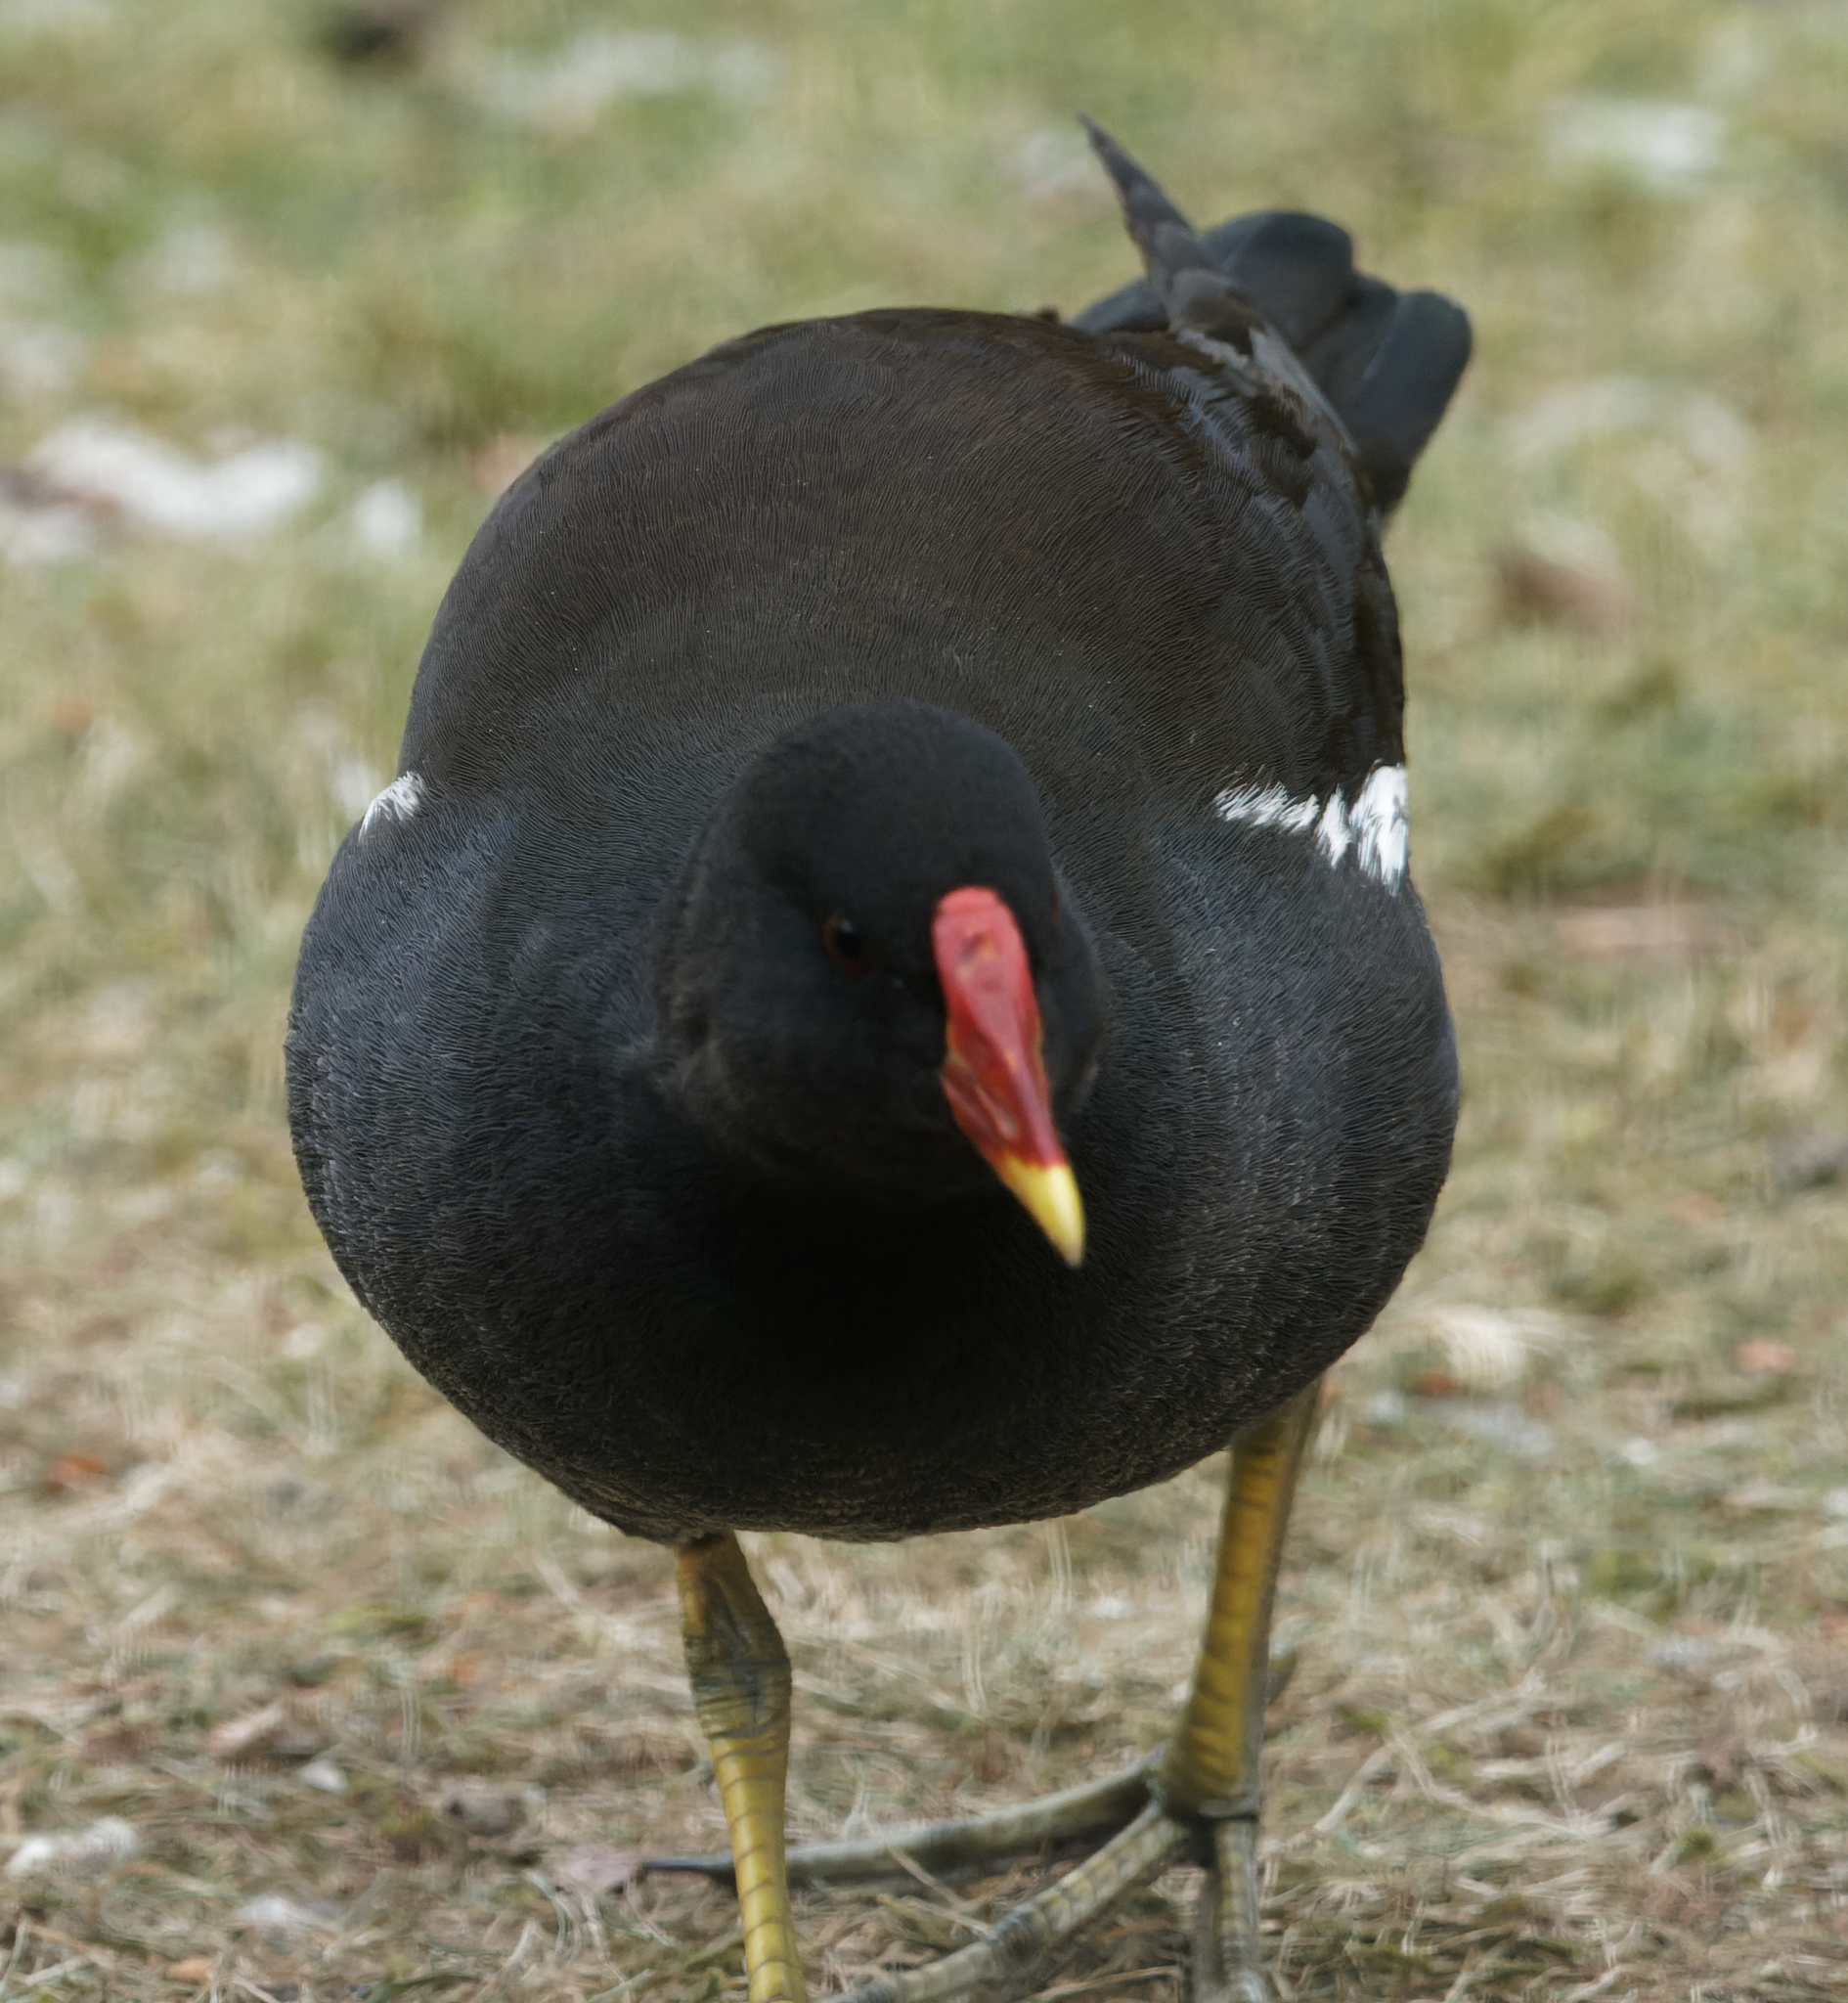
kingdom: Animalia
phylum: Chordata
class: Aves
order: Gruiformes
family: Rallidae
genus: Gallinula
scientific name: Gallinula chloropus
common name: Common moorhen
